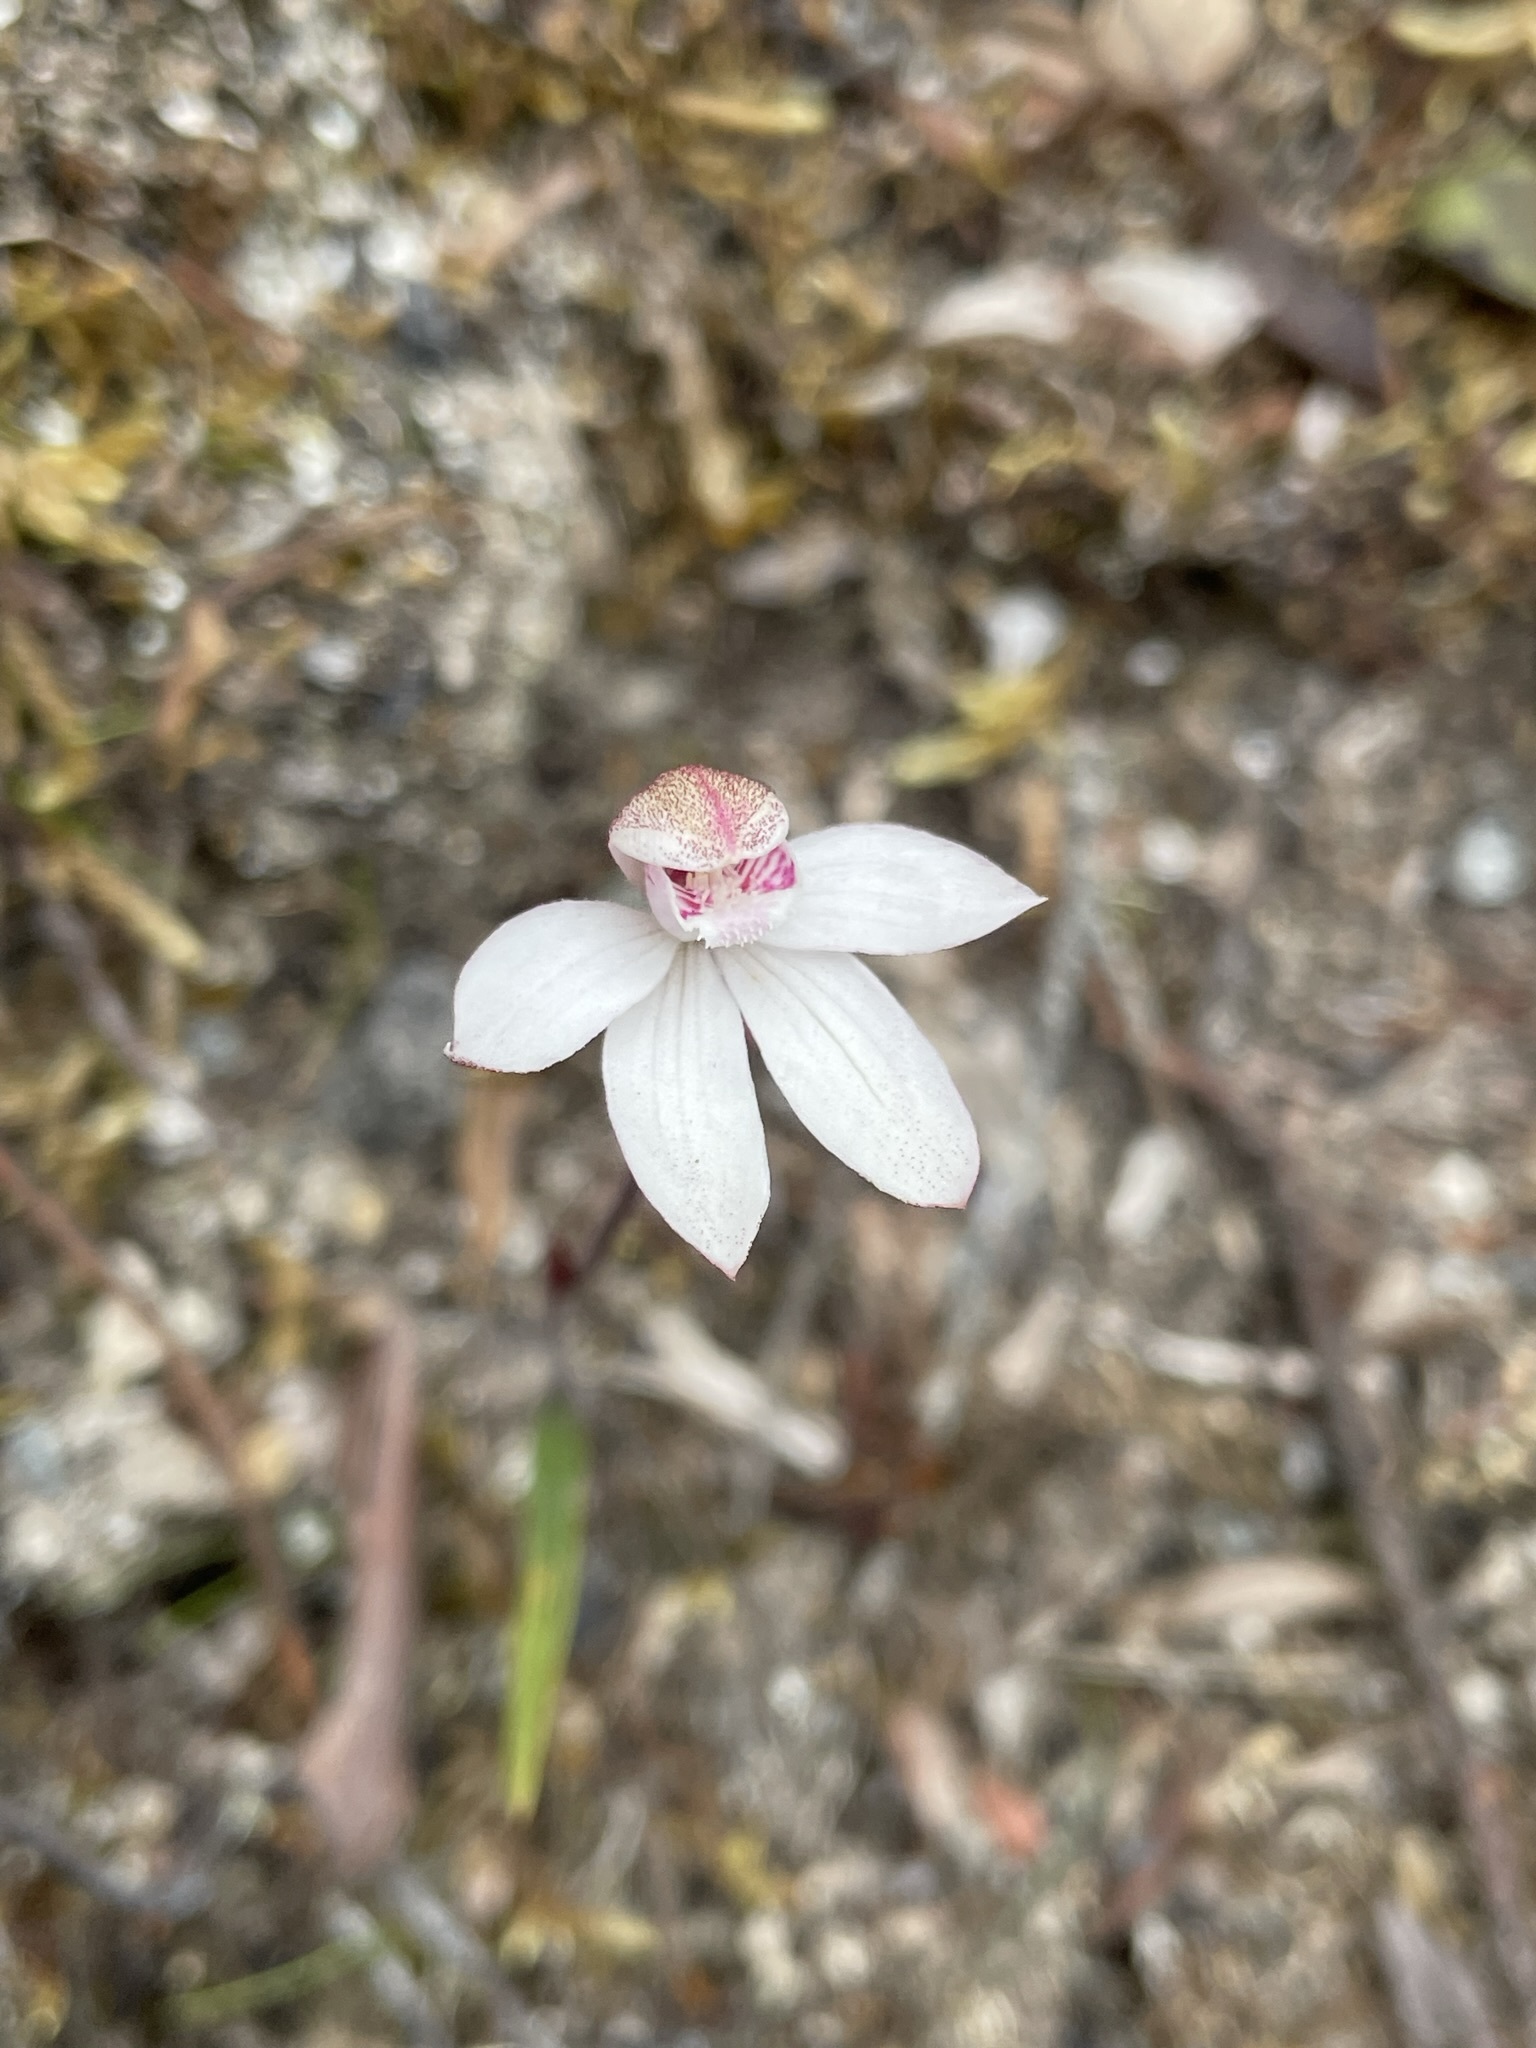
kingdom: Plantae
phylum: Tracheophyta
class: Liliopsida
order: Asparagales
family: Orchidaceae
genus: Caladenia
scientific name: Caladenia alpina
